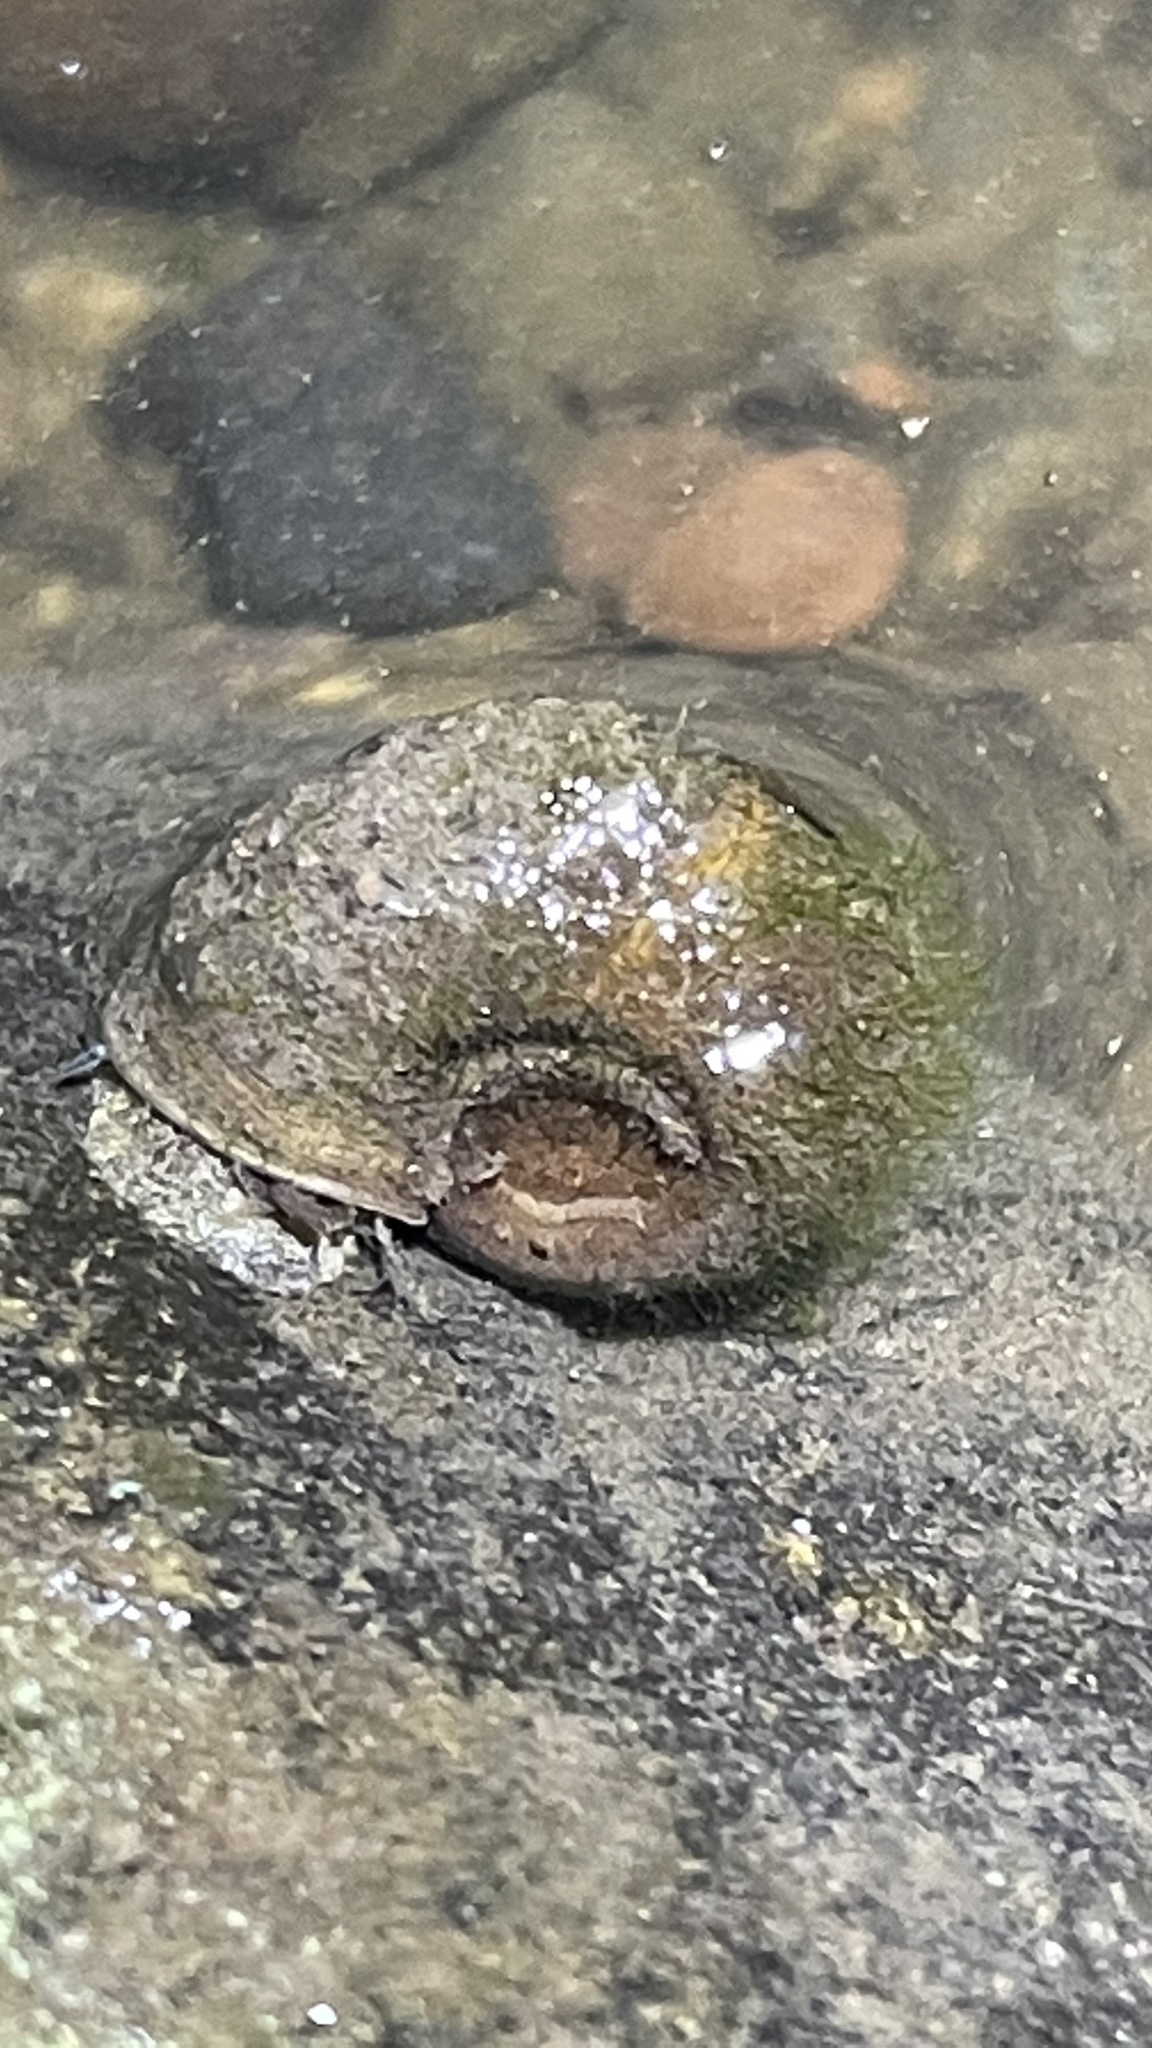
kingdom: Animalia
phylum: Mollusca
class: Gastropoda
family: Planorbidae
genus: Planorbella
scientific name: Planorbella trivolvis
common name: Marsh rams-horn
